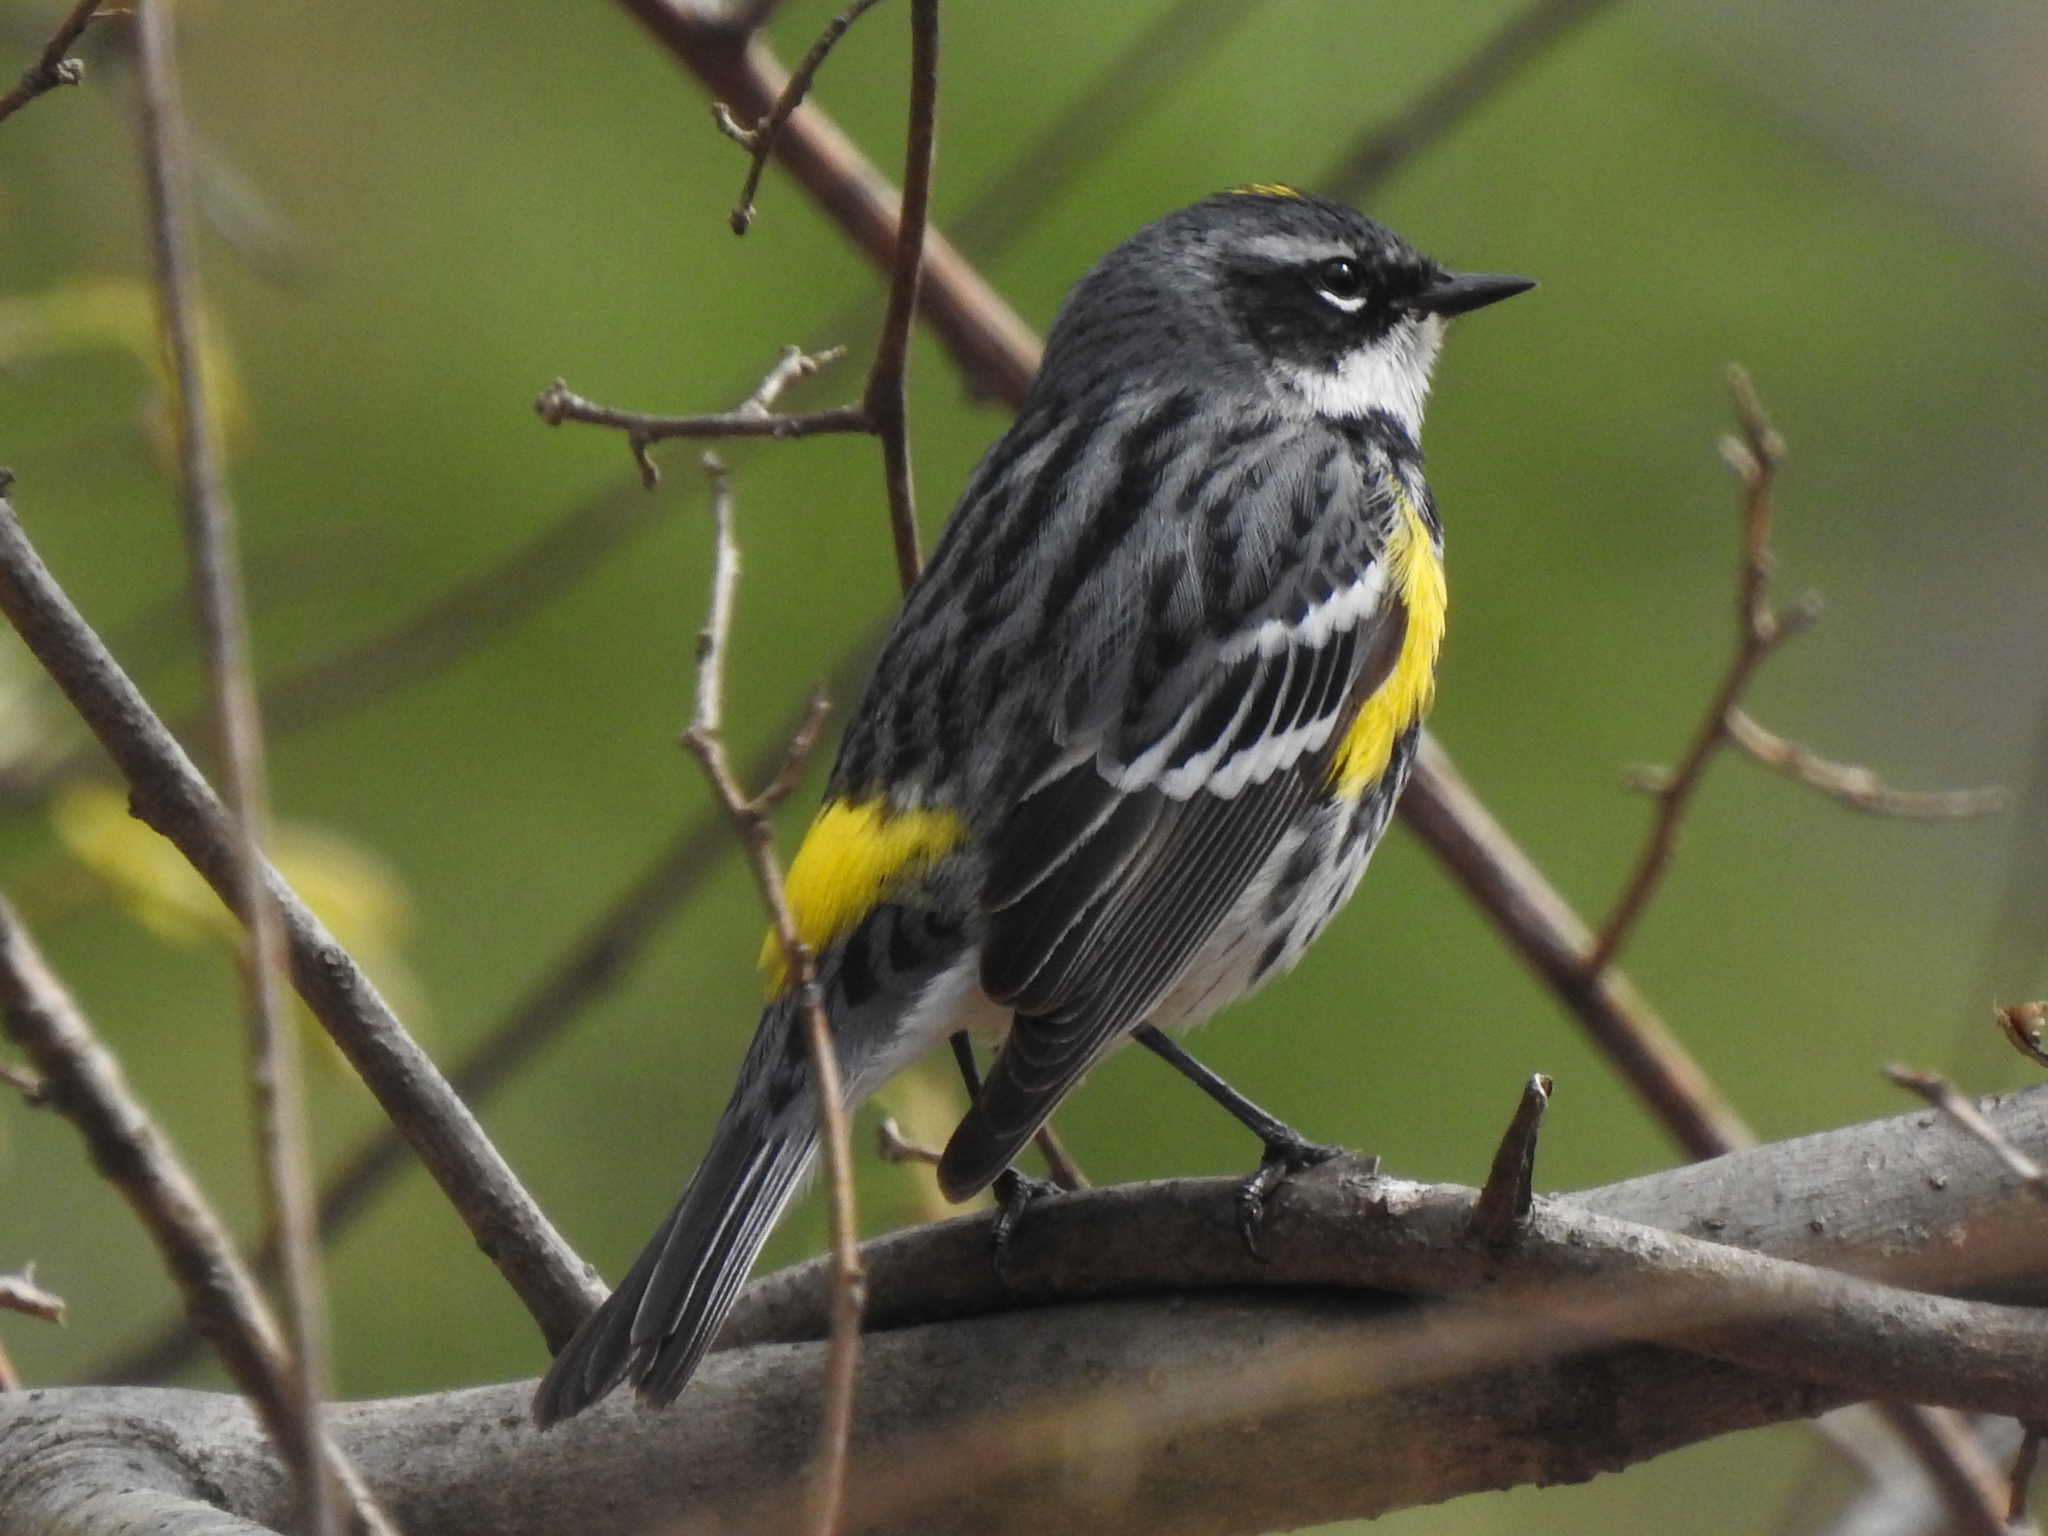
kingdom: Animalia
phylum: Chordata
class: Aves
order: Passeriformes
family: Parulidae
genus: Setophaga
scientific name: Setophaga coronata
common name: Myrtle warbler
